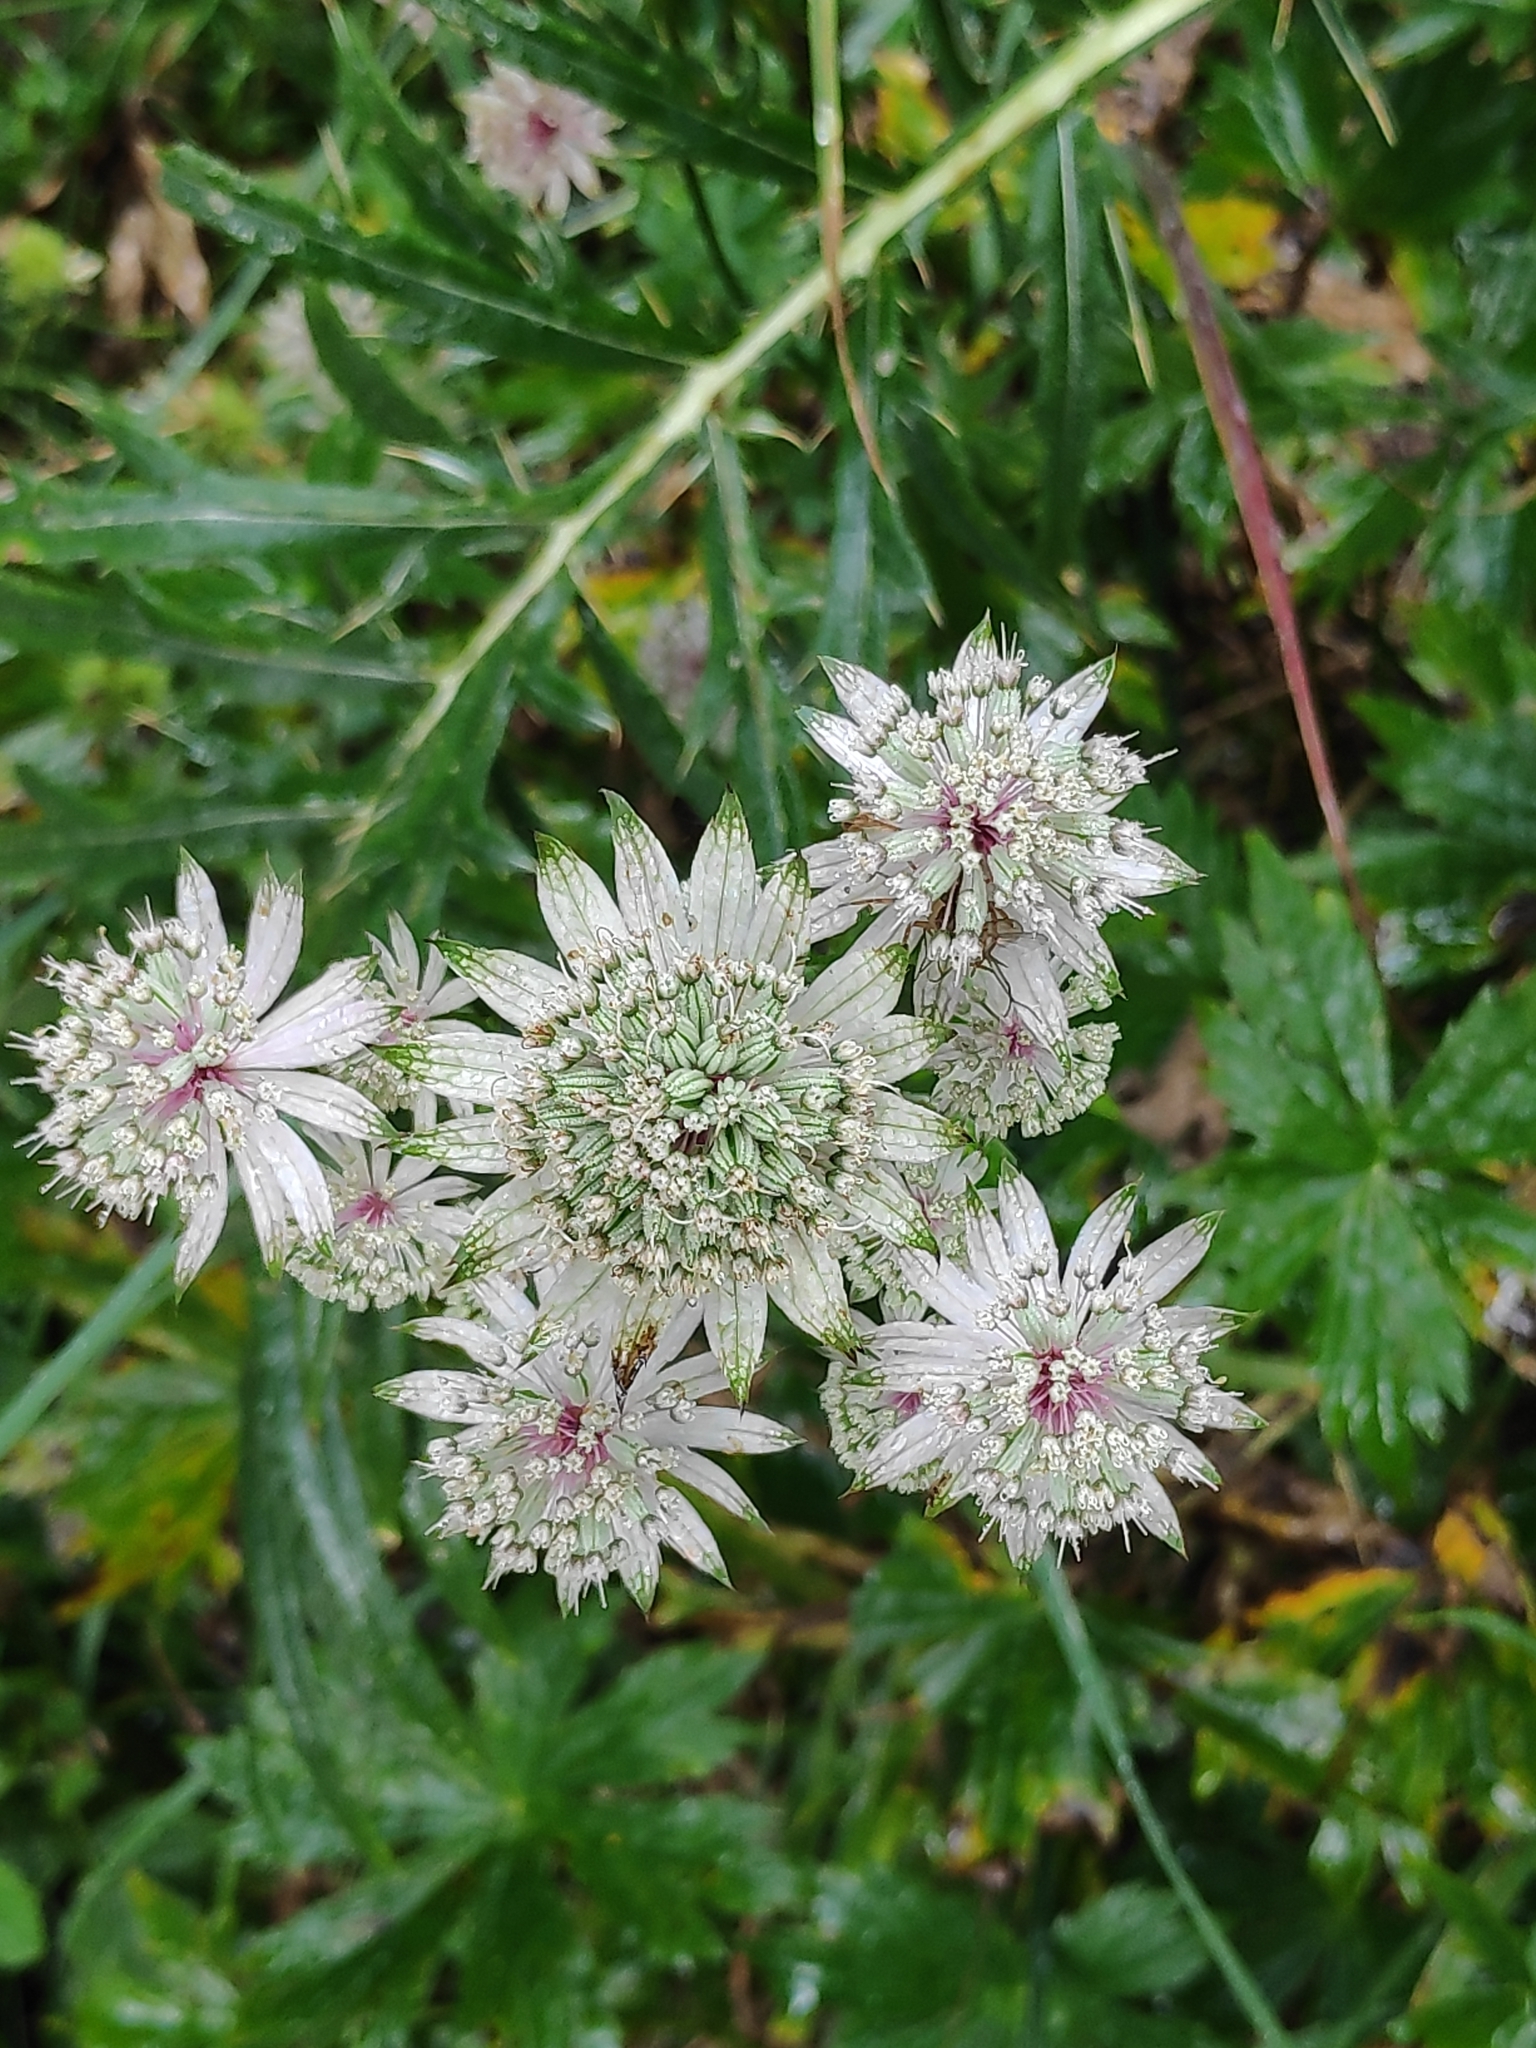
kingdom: Plantae
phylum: Tracheophyta
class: Magnoliopsida
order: Apiales
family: Apiaceae
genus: Astrantia
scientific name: Astrantia major
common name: Greater masterwort
